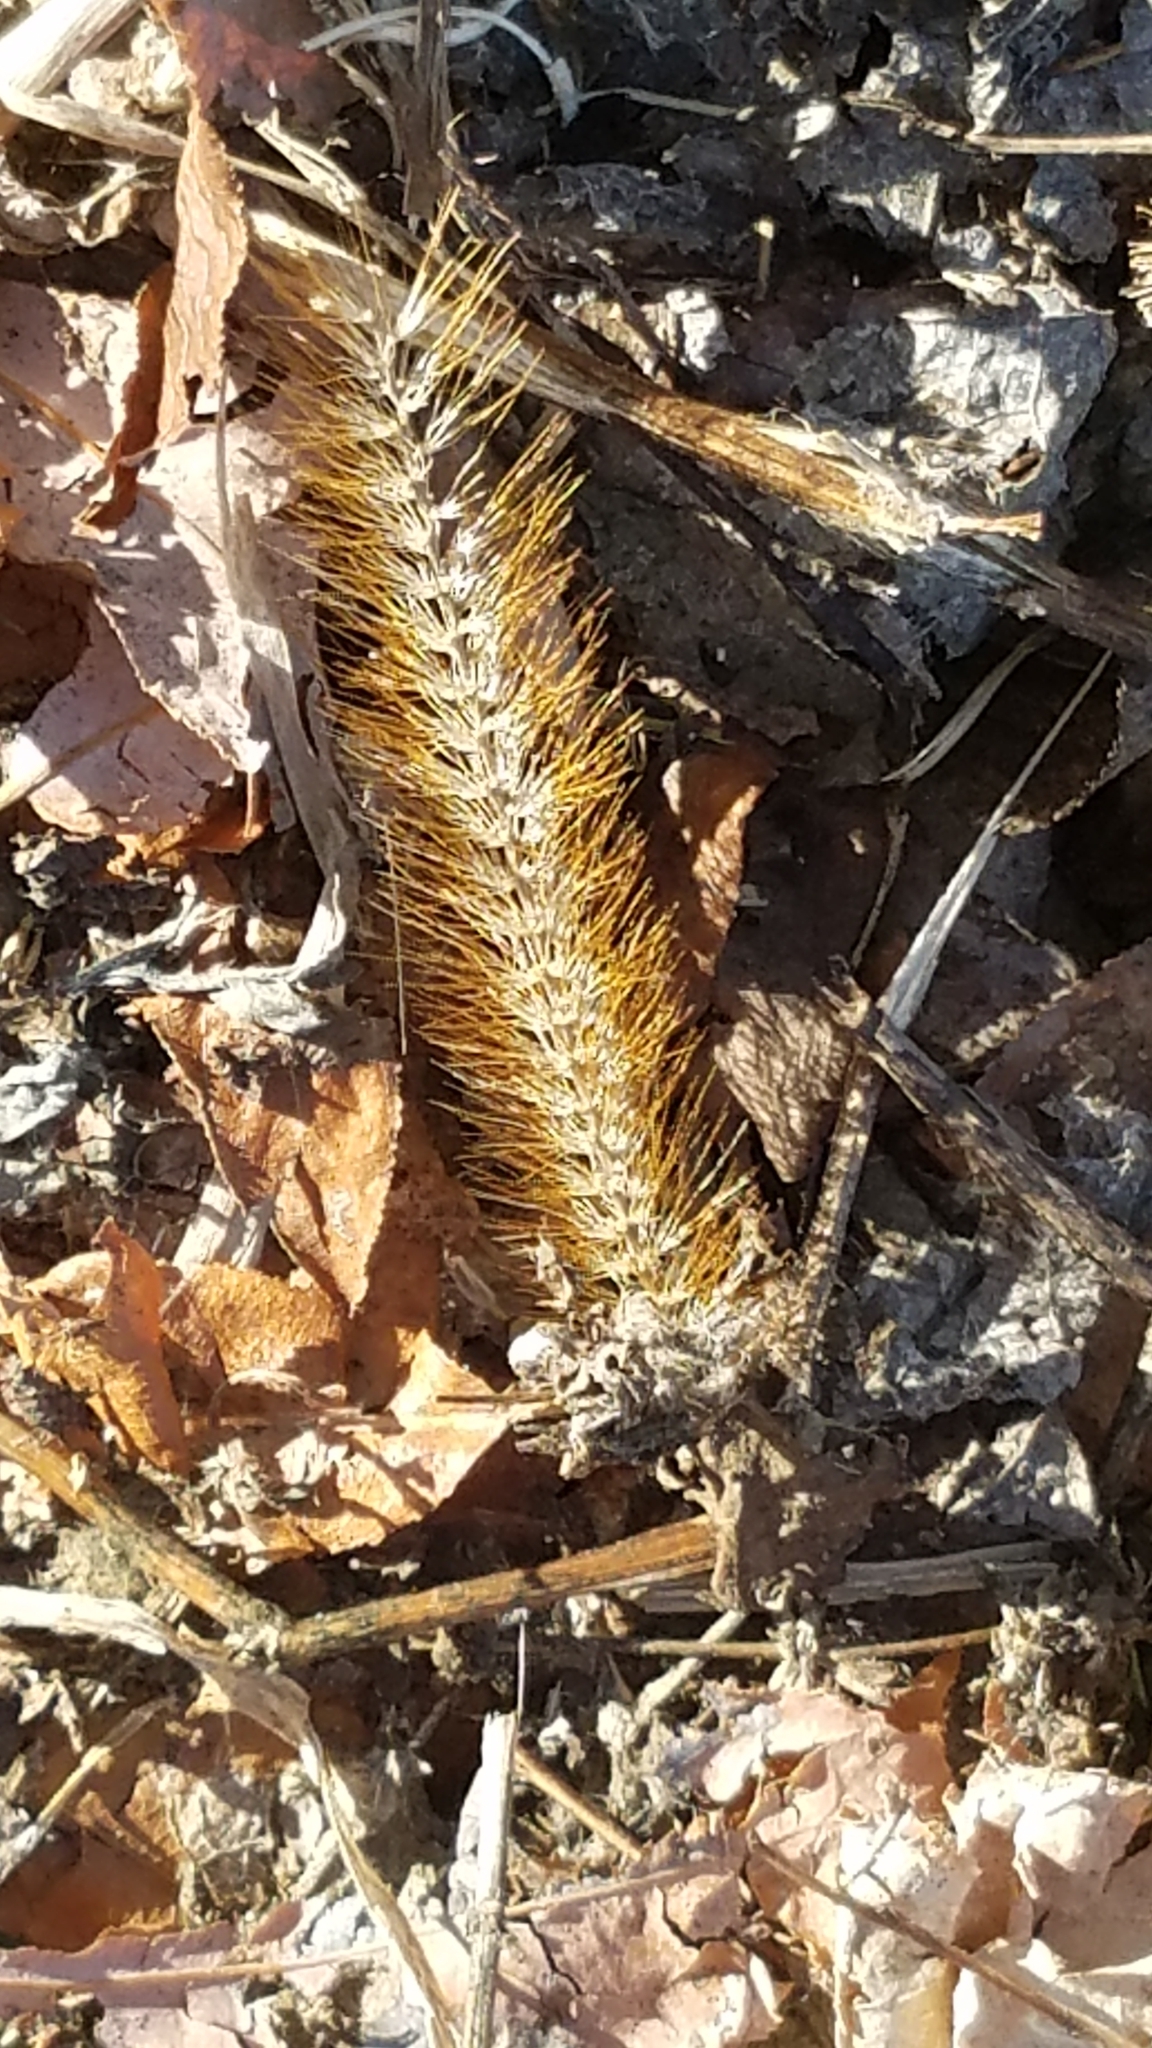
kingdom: Plantae
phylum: Tracheophyta
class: Liliopsida
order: Poales
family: Poaceae
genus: Setaria
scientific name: Setaria pumila
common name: Yellow bristle-grass
